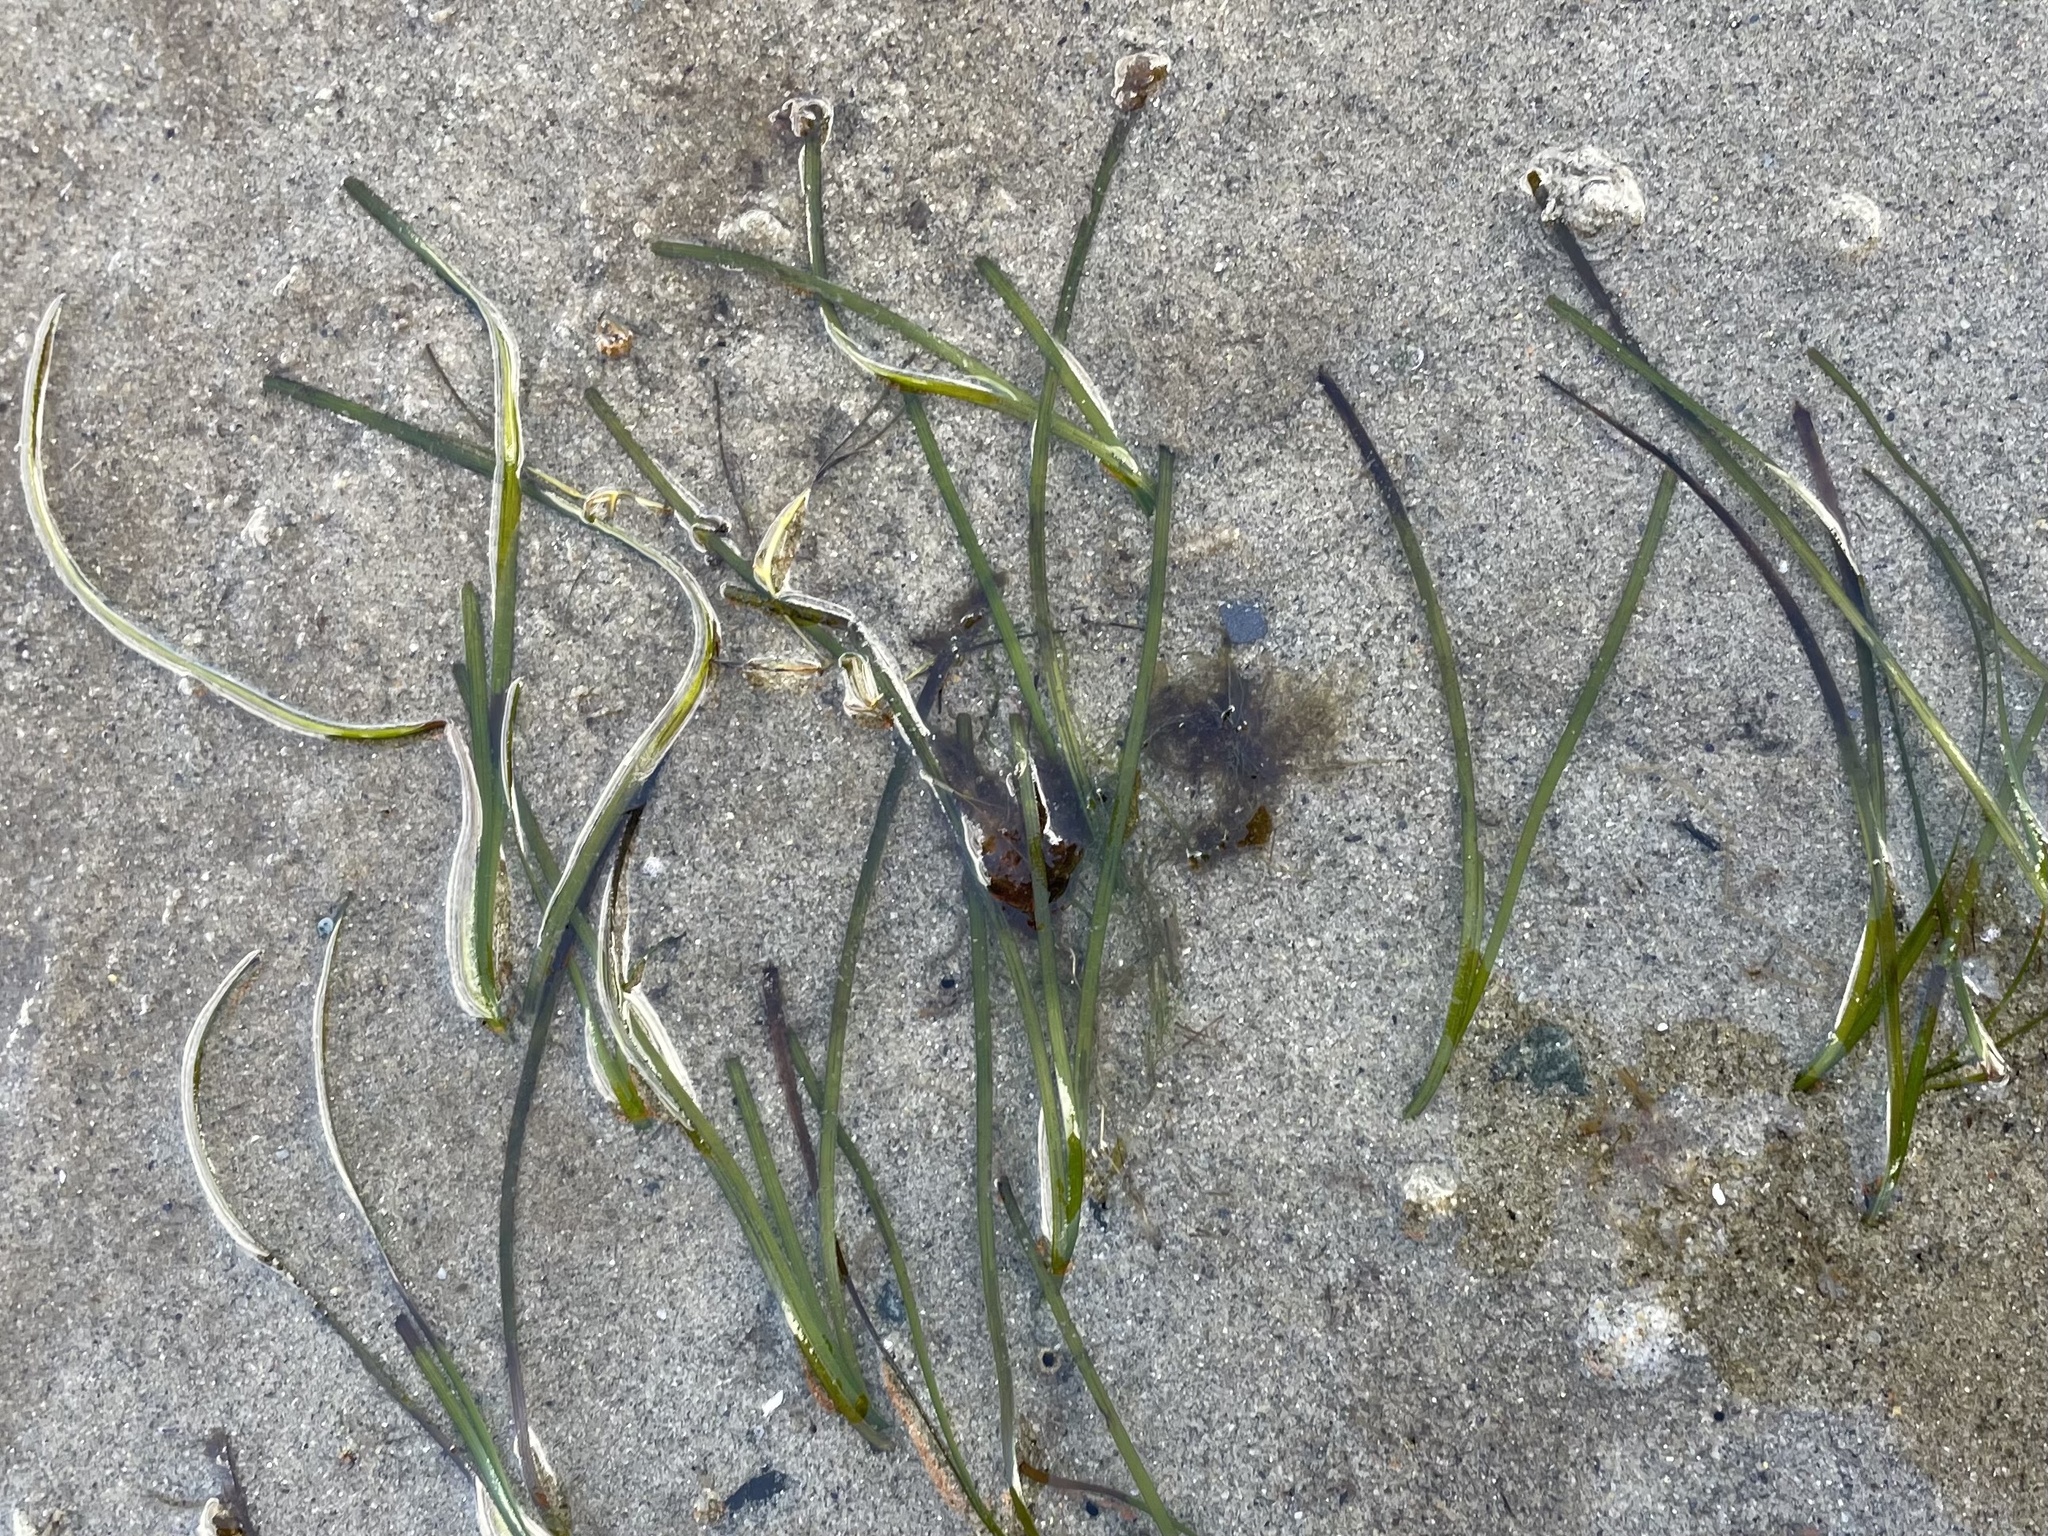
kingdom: Plantae
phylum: Tracheophyta
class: Liliopsida
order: Alismatales
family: Zosteraceae
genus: Zostera
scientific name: Zostera marina
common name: Eelgrass
